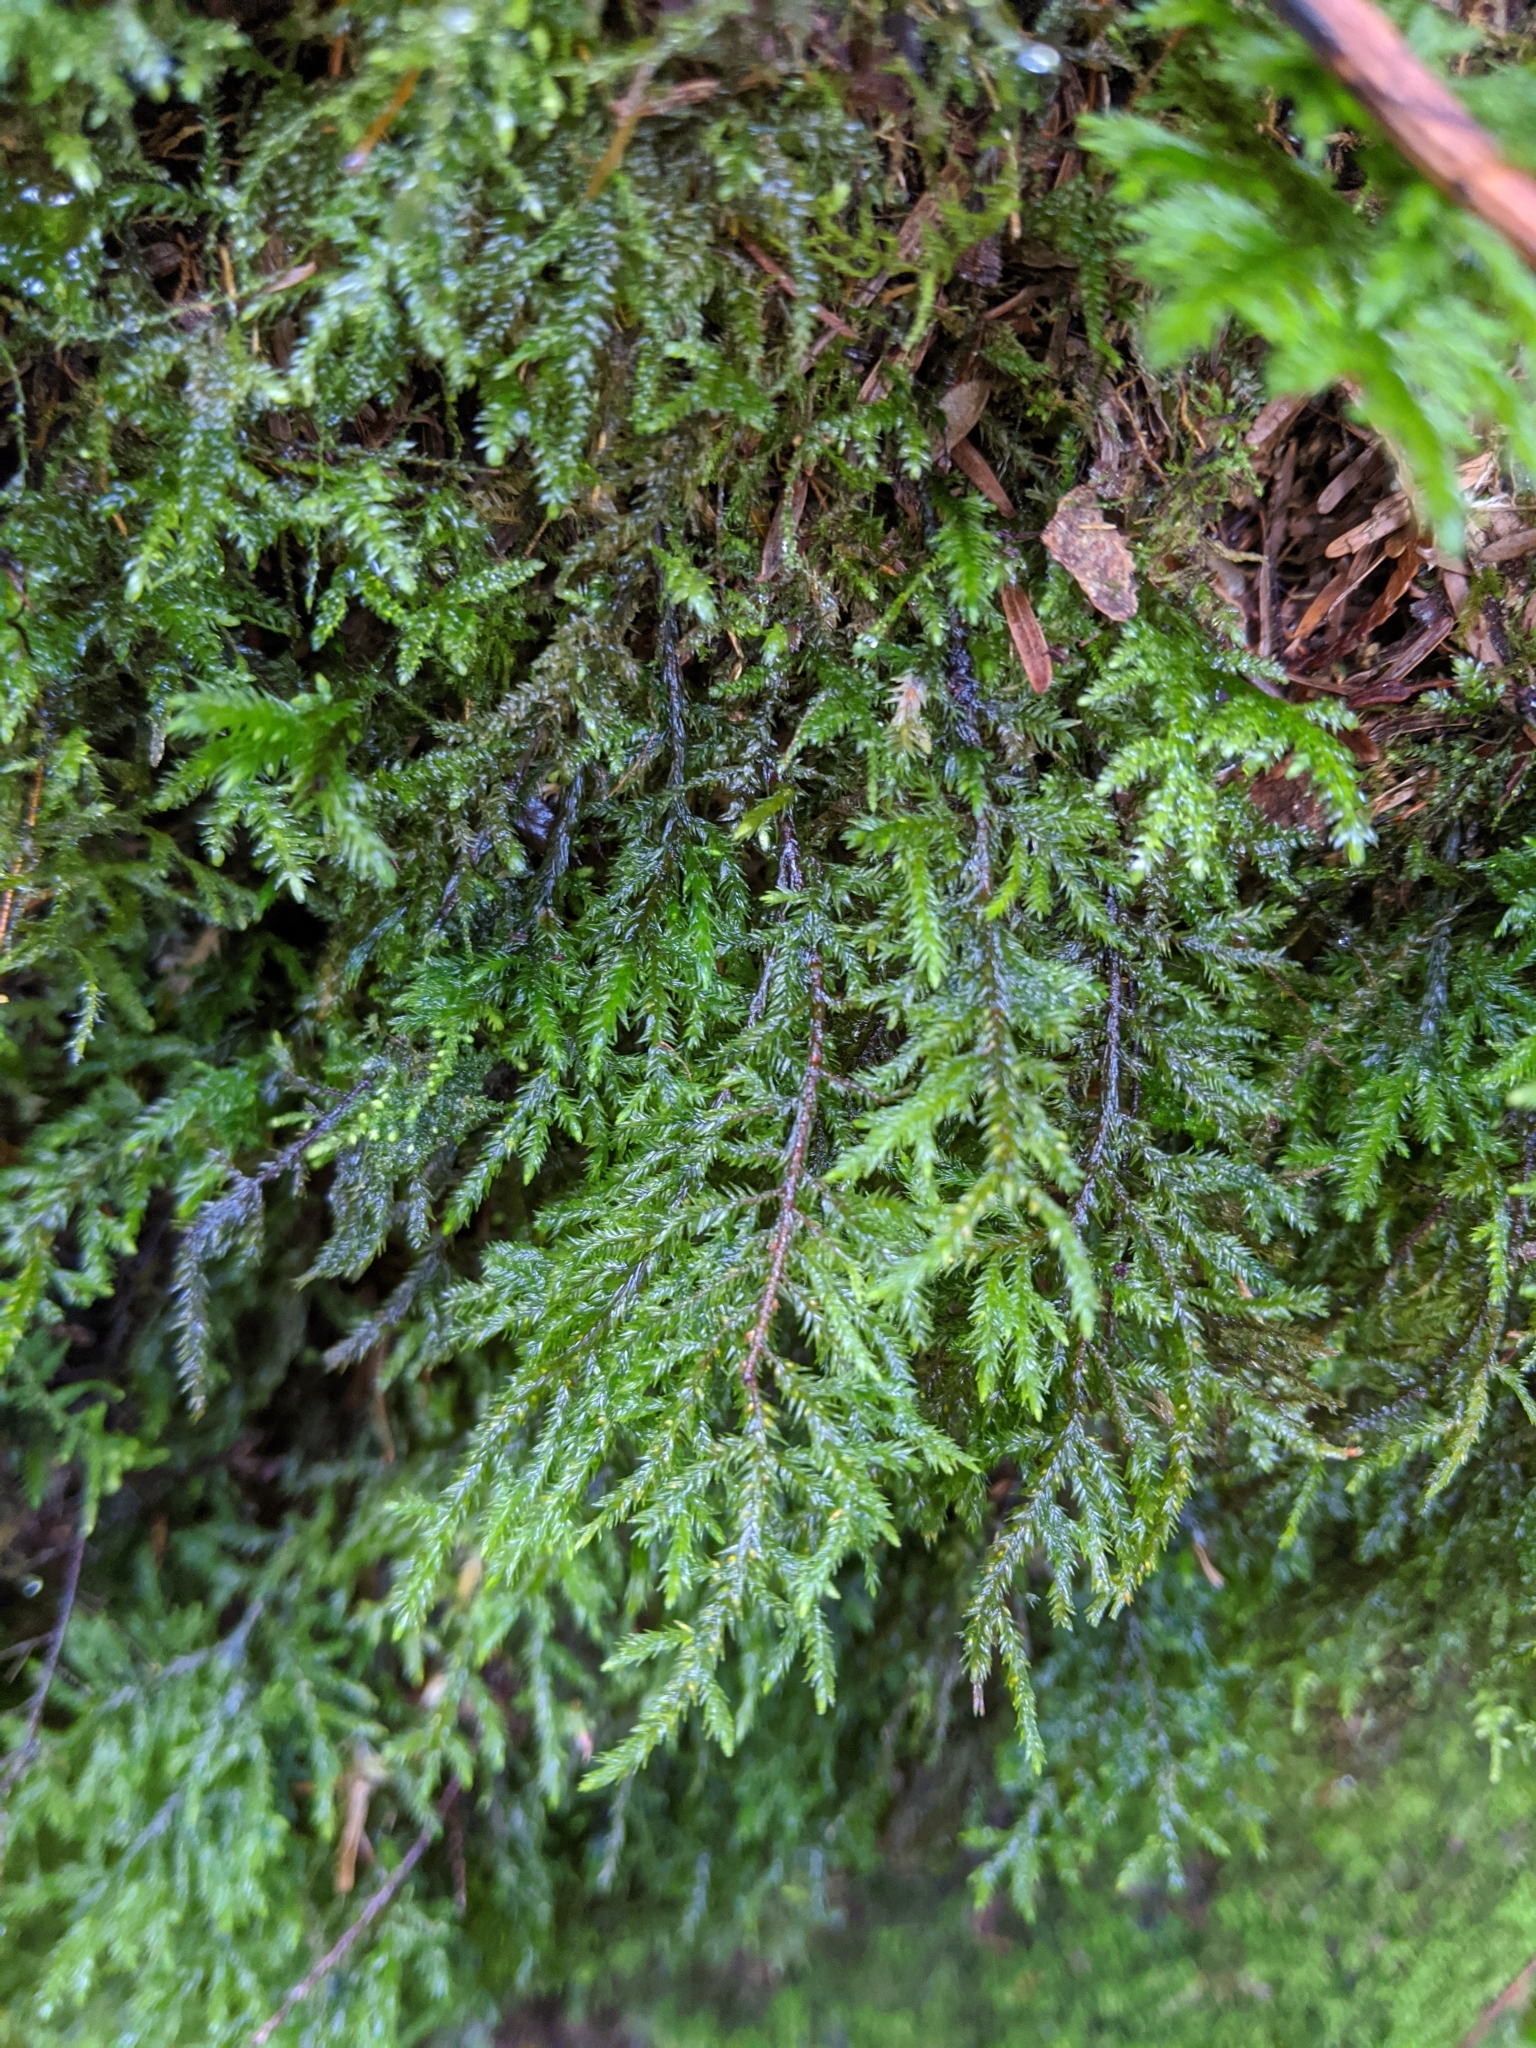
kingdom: Plantae
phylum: Bryophyta
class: Bryopsida
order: Hypnales
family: Cryphaeaceae
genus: Dendroalsia
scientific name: Dendroalsia abietina
